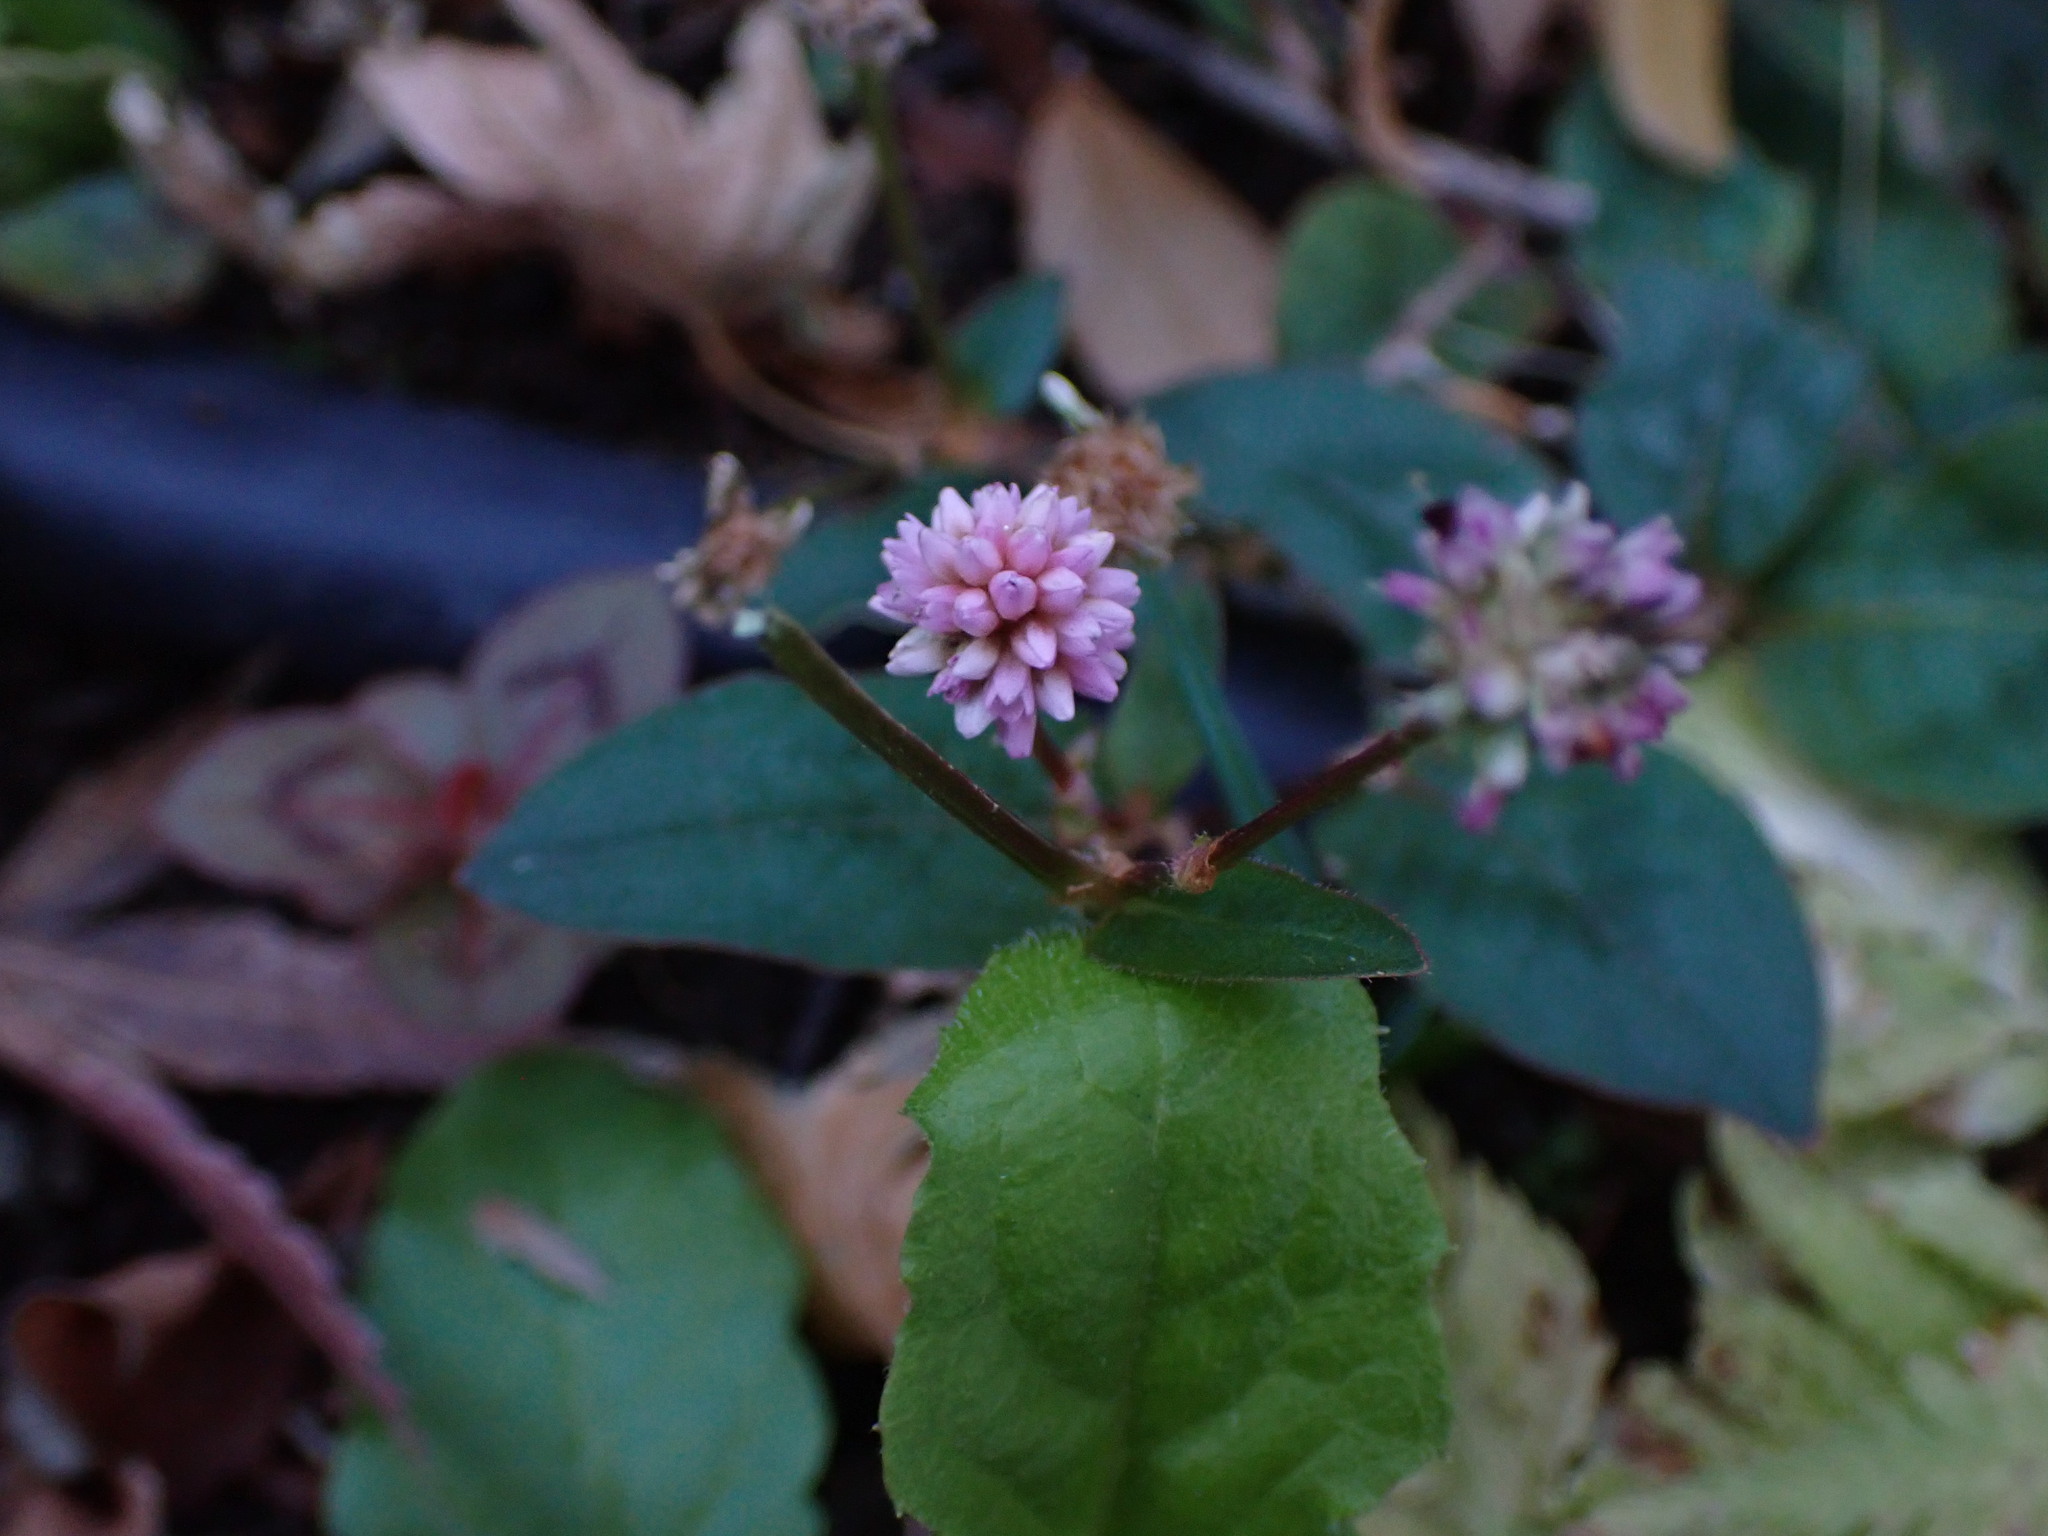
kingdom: Plantae
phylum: Tracheophyta
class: Magnoliopsida
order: Caryophyllales
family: Polygonaceae
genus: Persicaria
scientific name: Persicaria capitata
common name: Pinkhead smartweed
